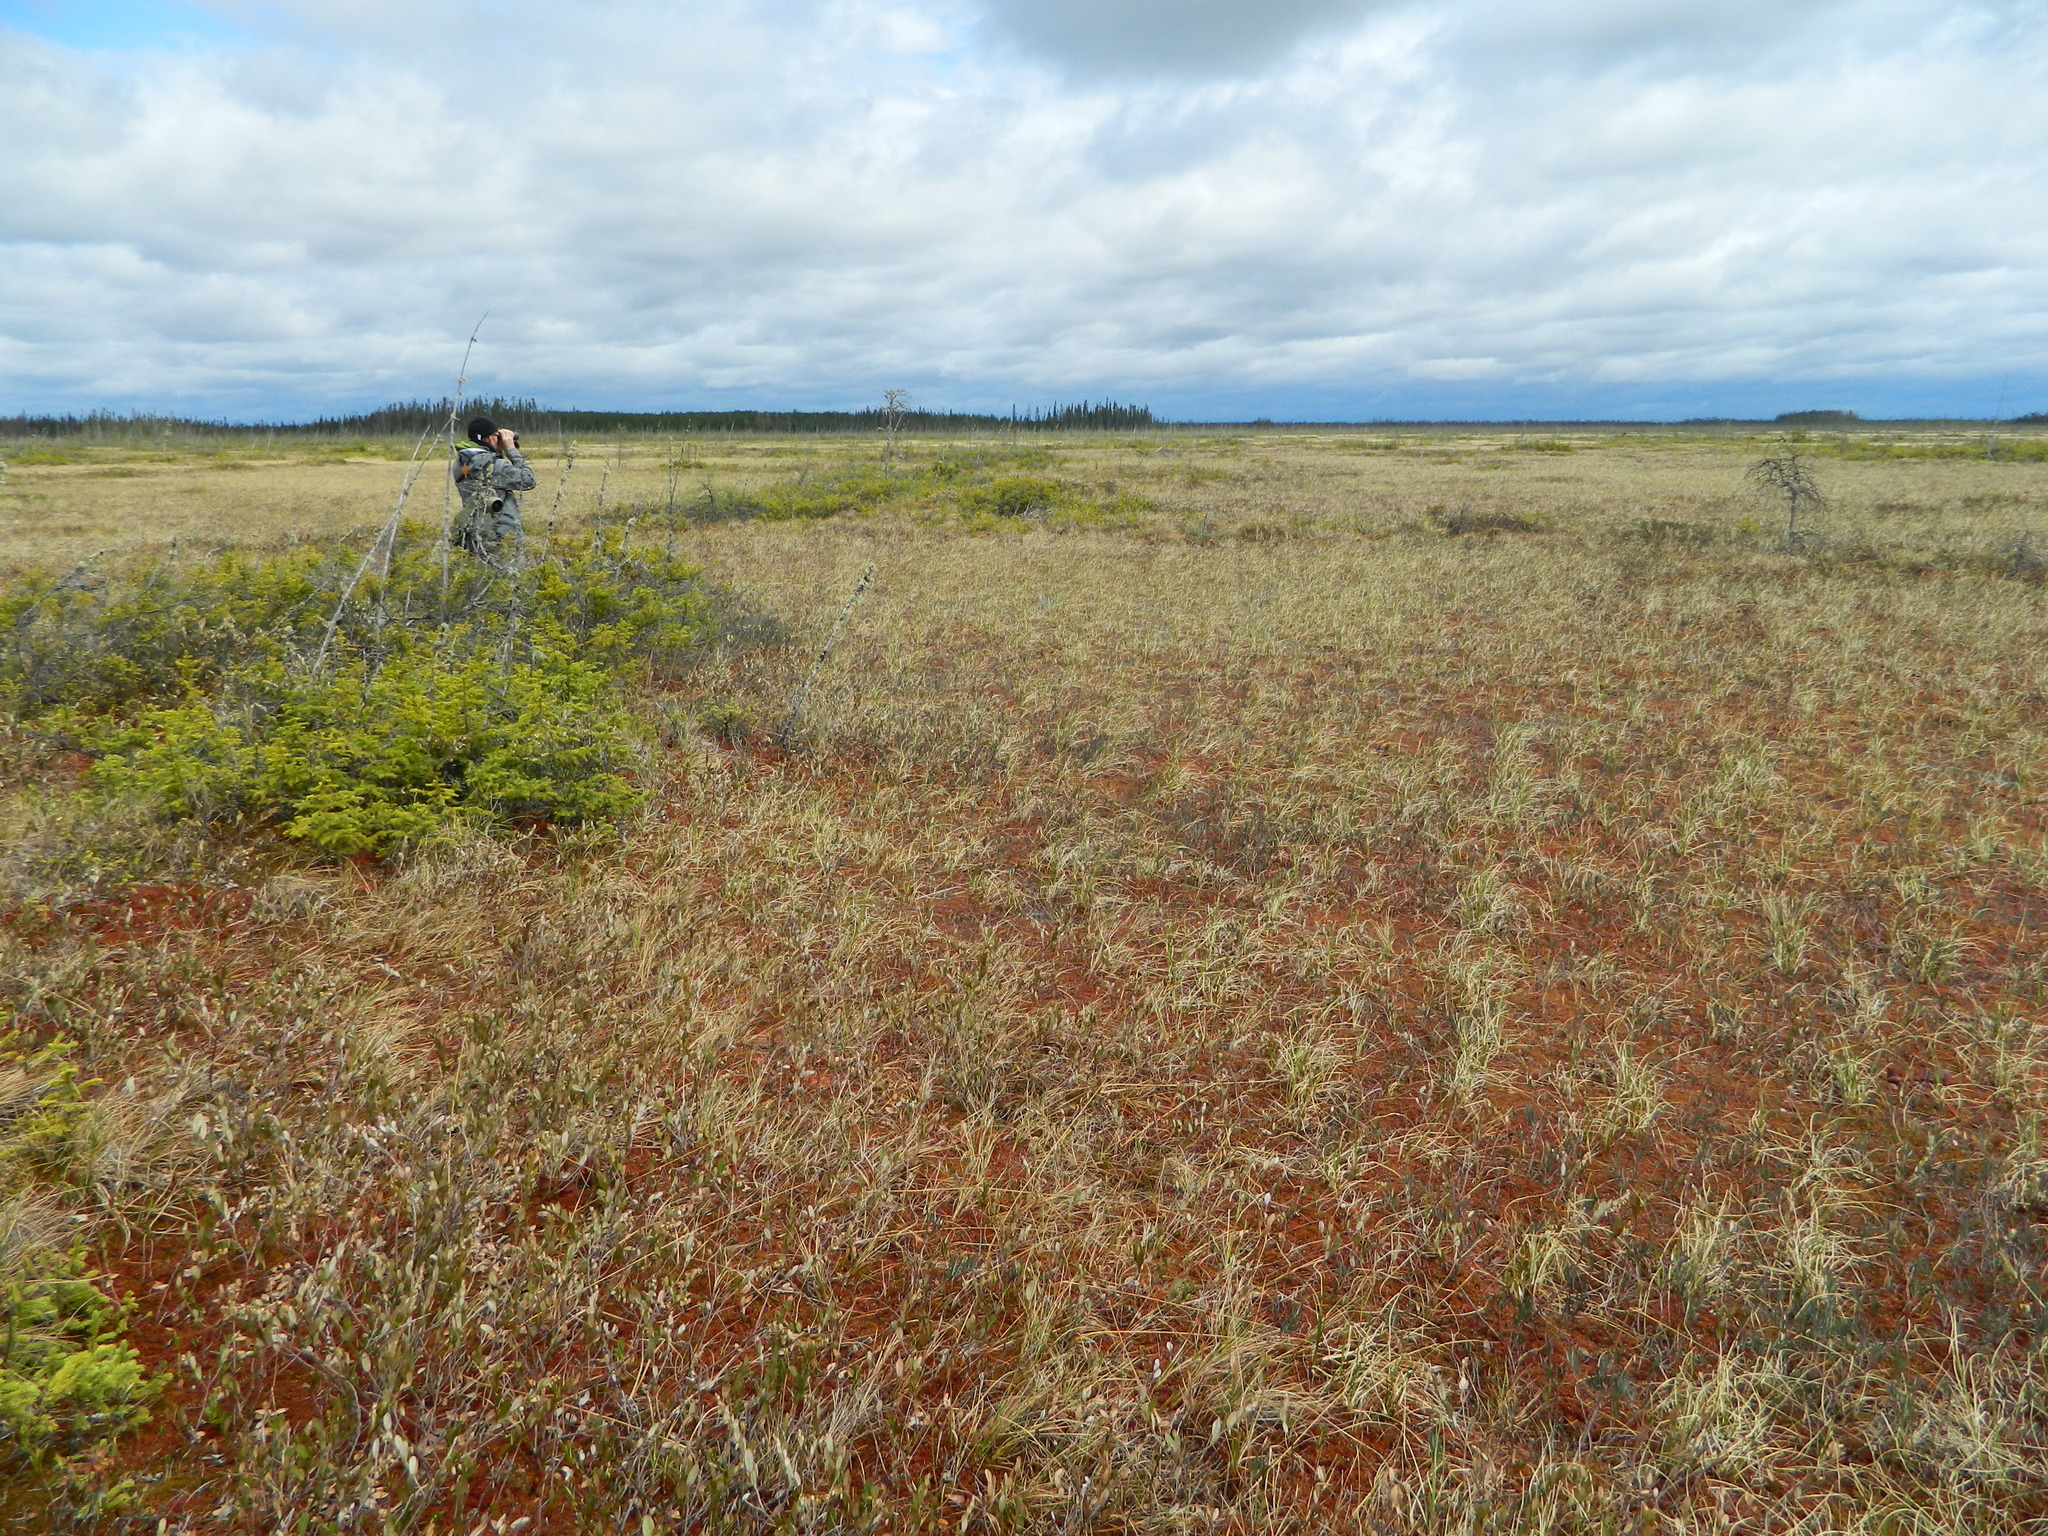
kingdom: Plantae
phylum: Tracheophyta
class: Pinopsida
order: Pinales
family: Pinaceae
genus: Picea
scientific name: Picea mariana
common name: Black spruce
